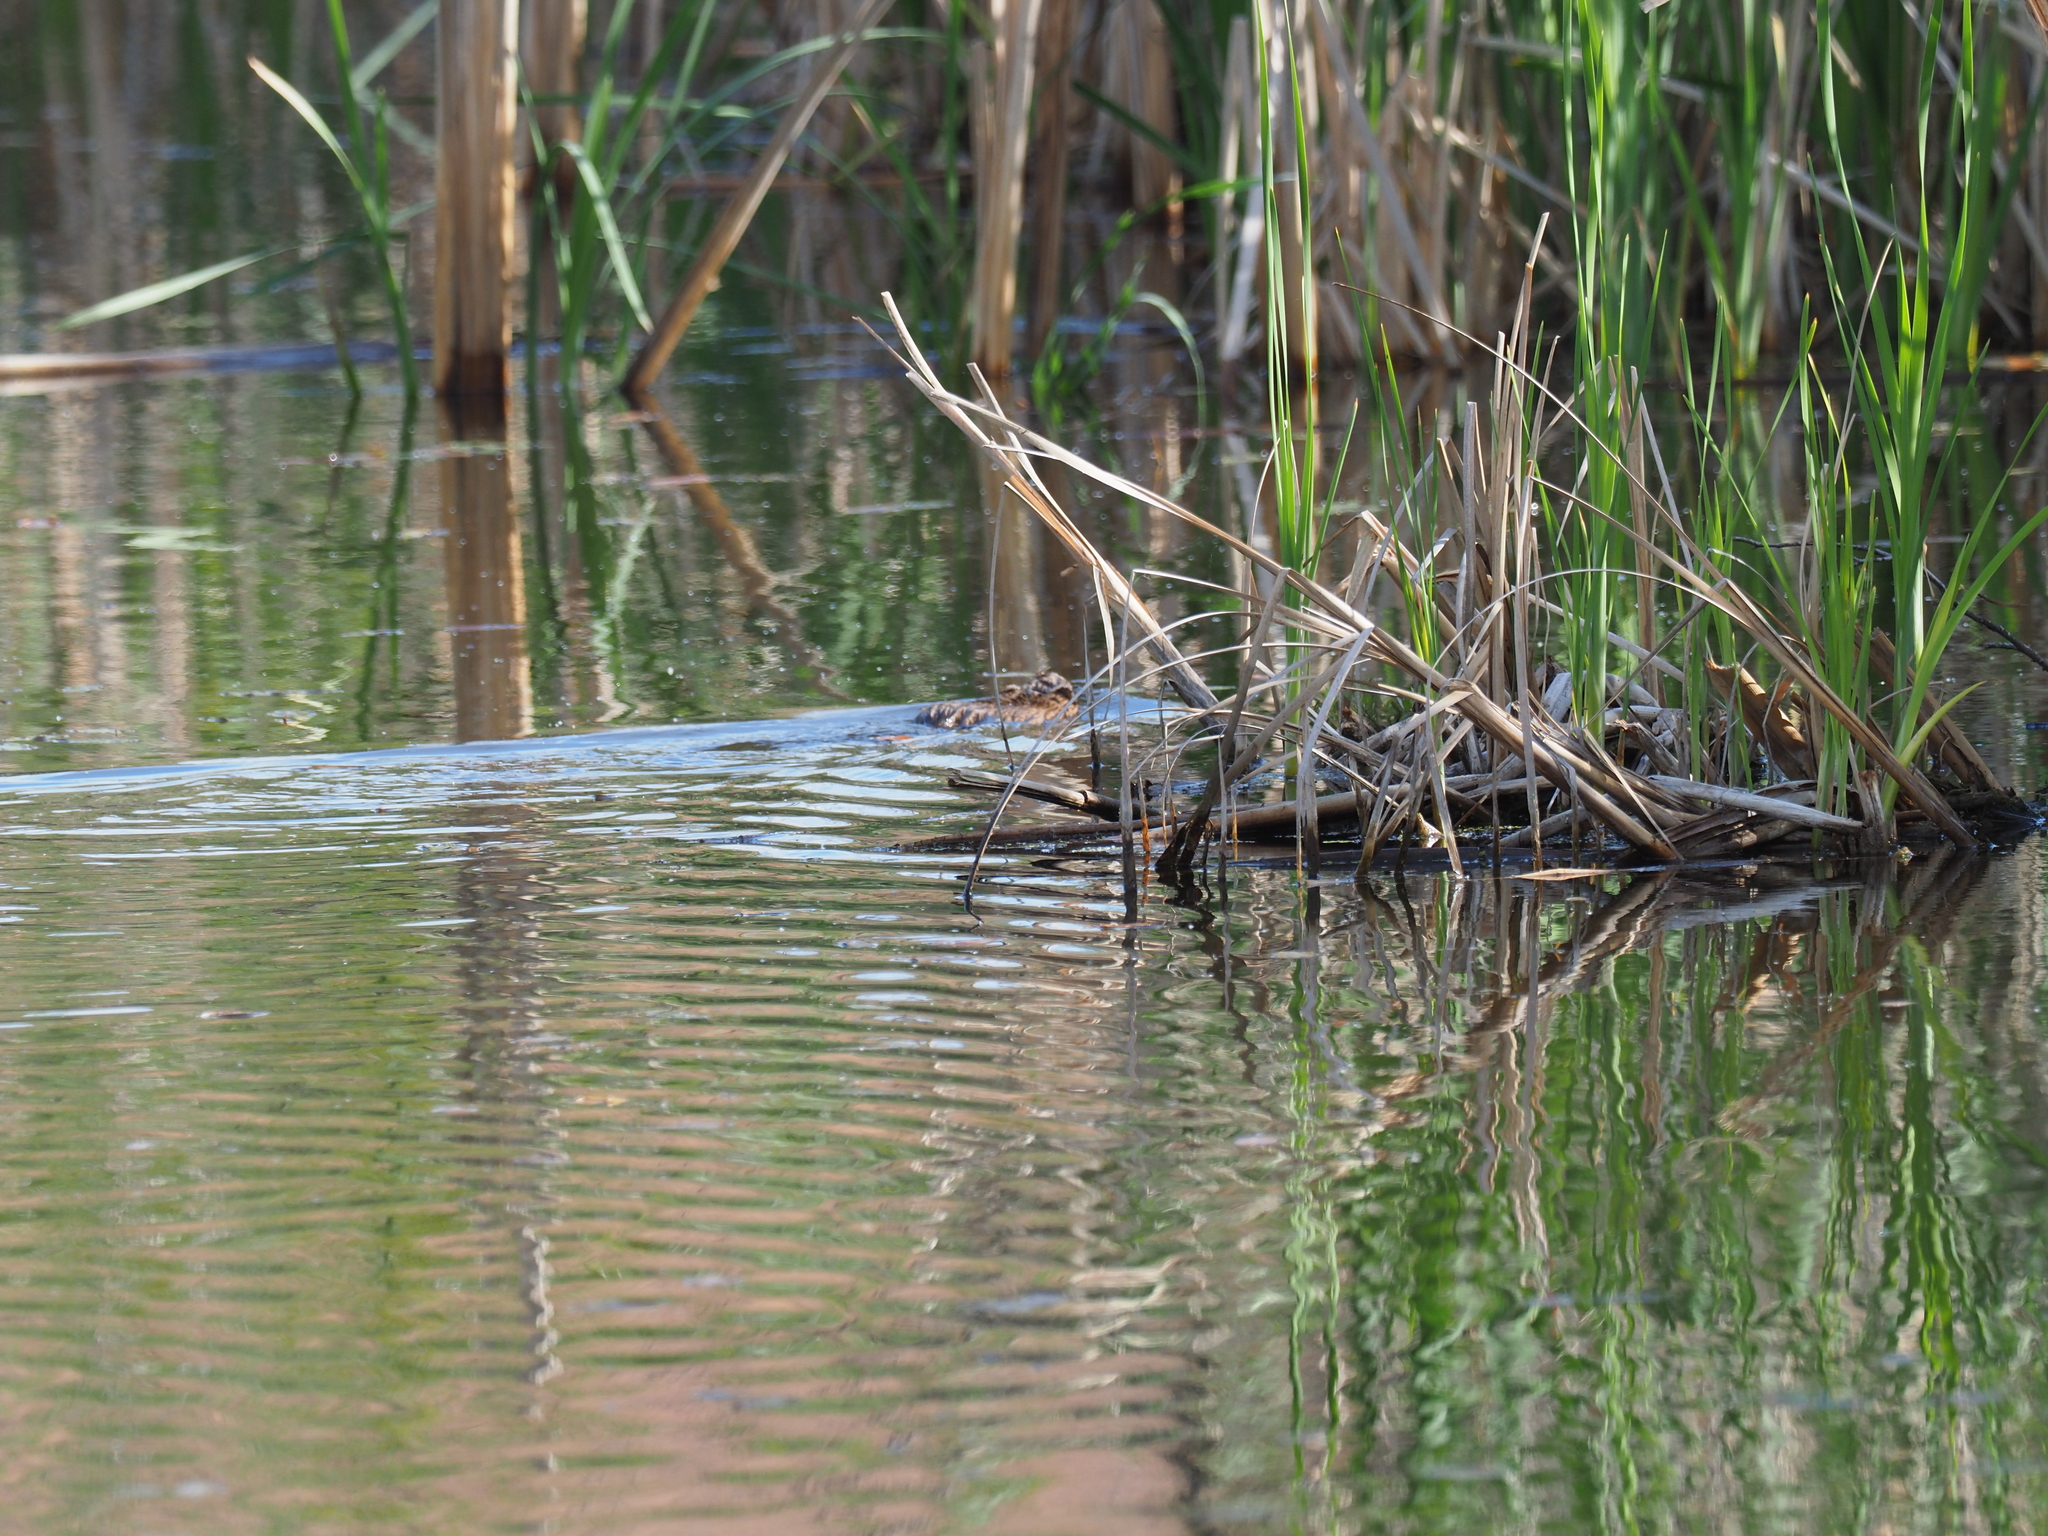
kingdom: Animalia
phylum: Chordata
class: Mammalia
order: Rodentia
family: Cricetidae
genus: Ondatra
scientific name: Ondatra zibethicus
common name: Muskrat
